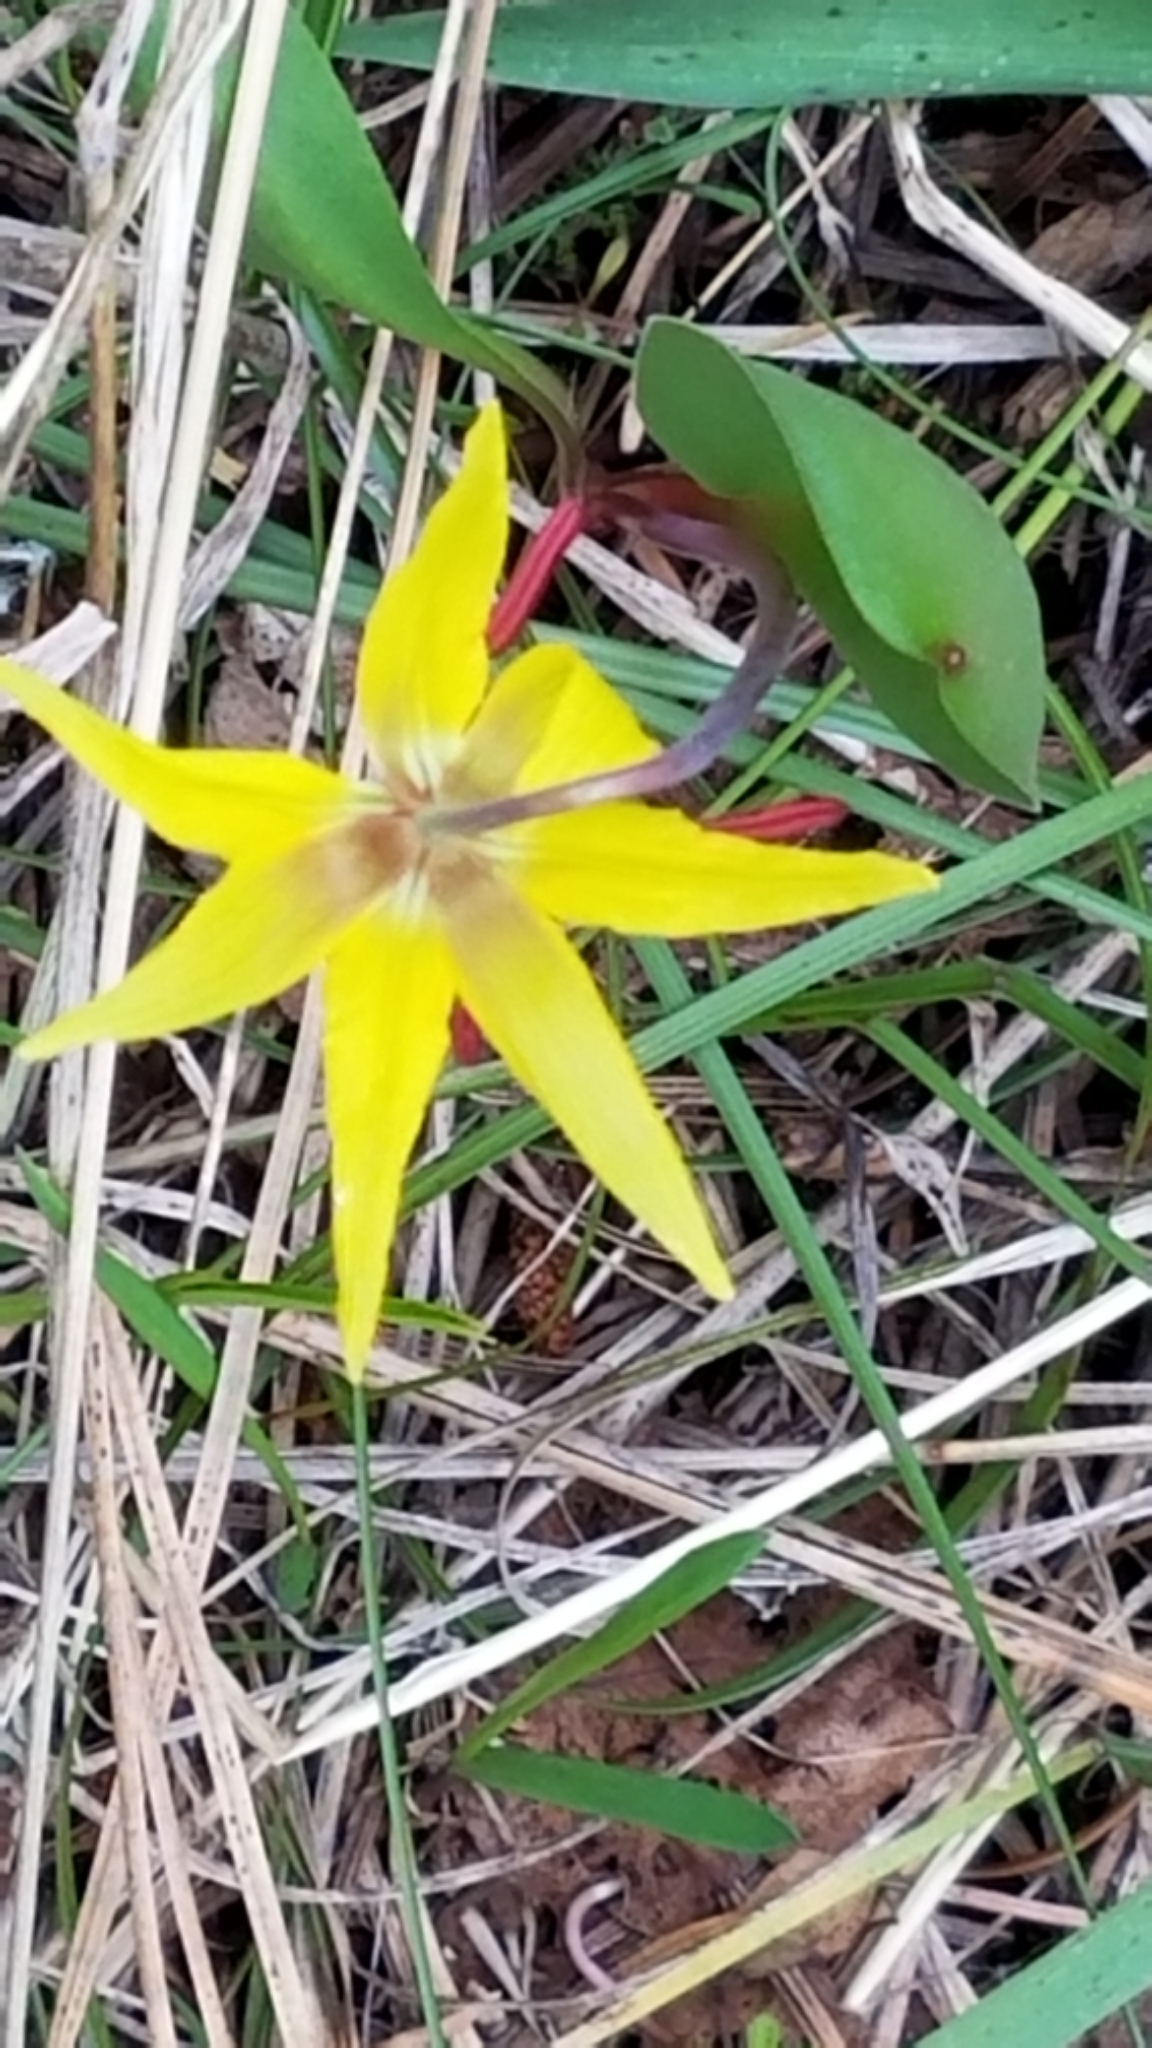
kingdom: Plantae
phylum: Tracheophyta
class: Liliopsida
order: Liliales
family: Liliaceae
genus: Erythronium
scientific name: Erythronium grandiflorum
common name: Avalanche-lily
